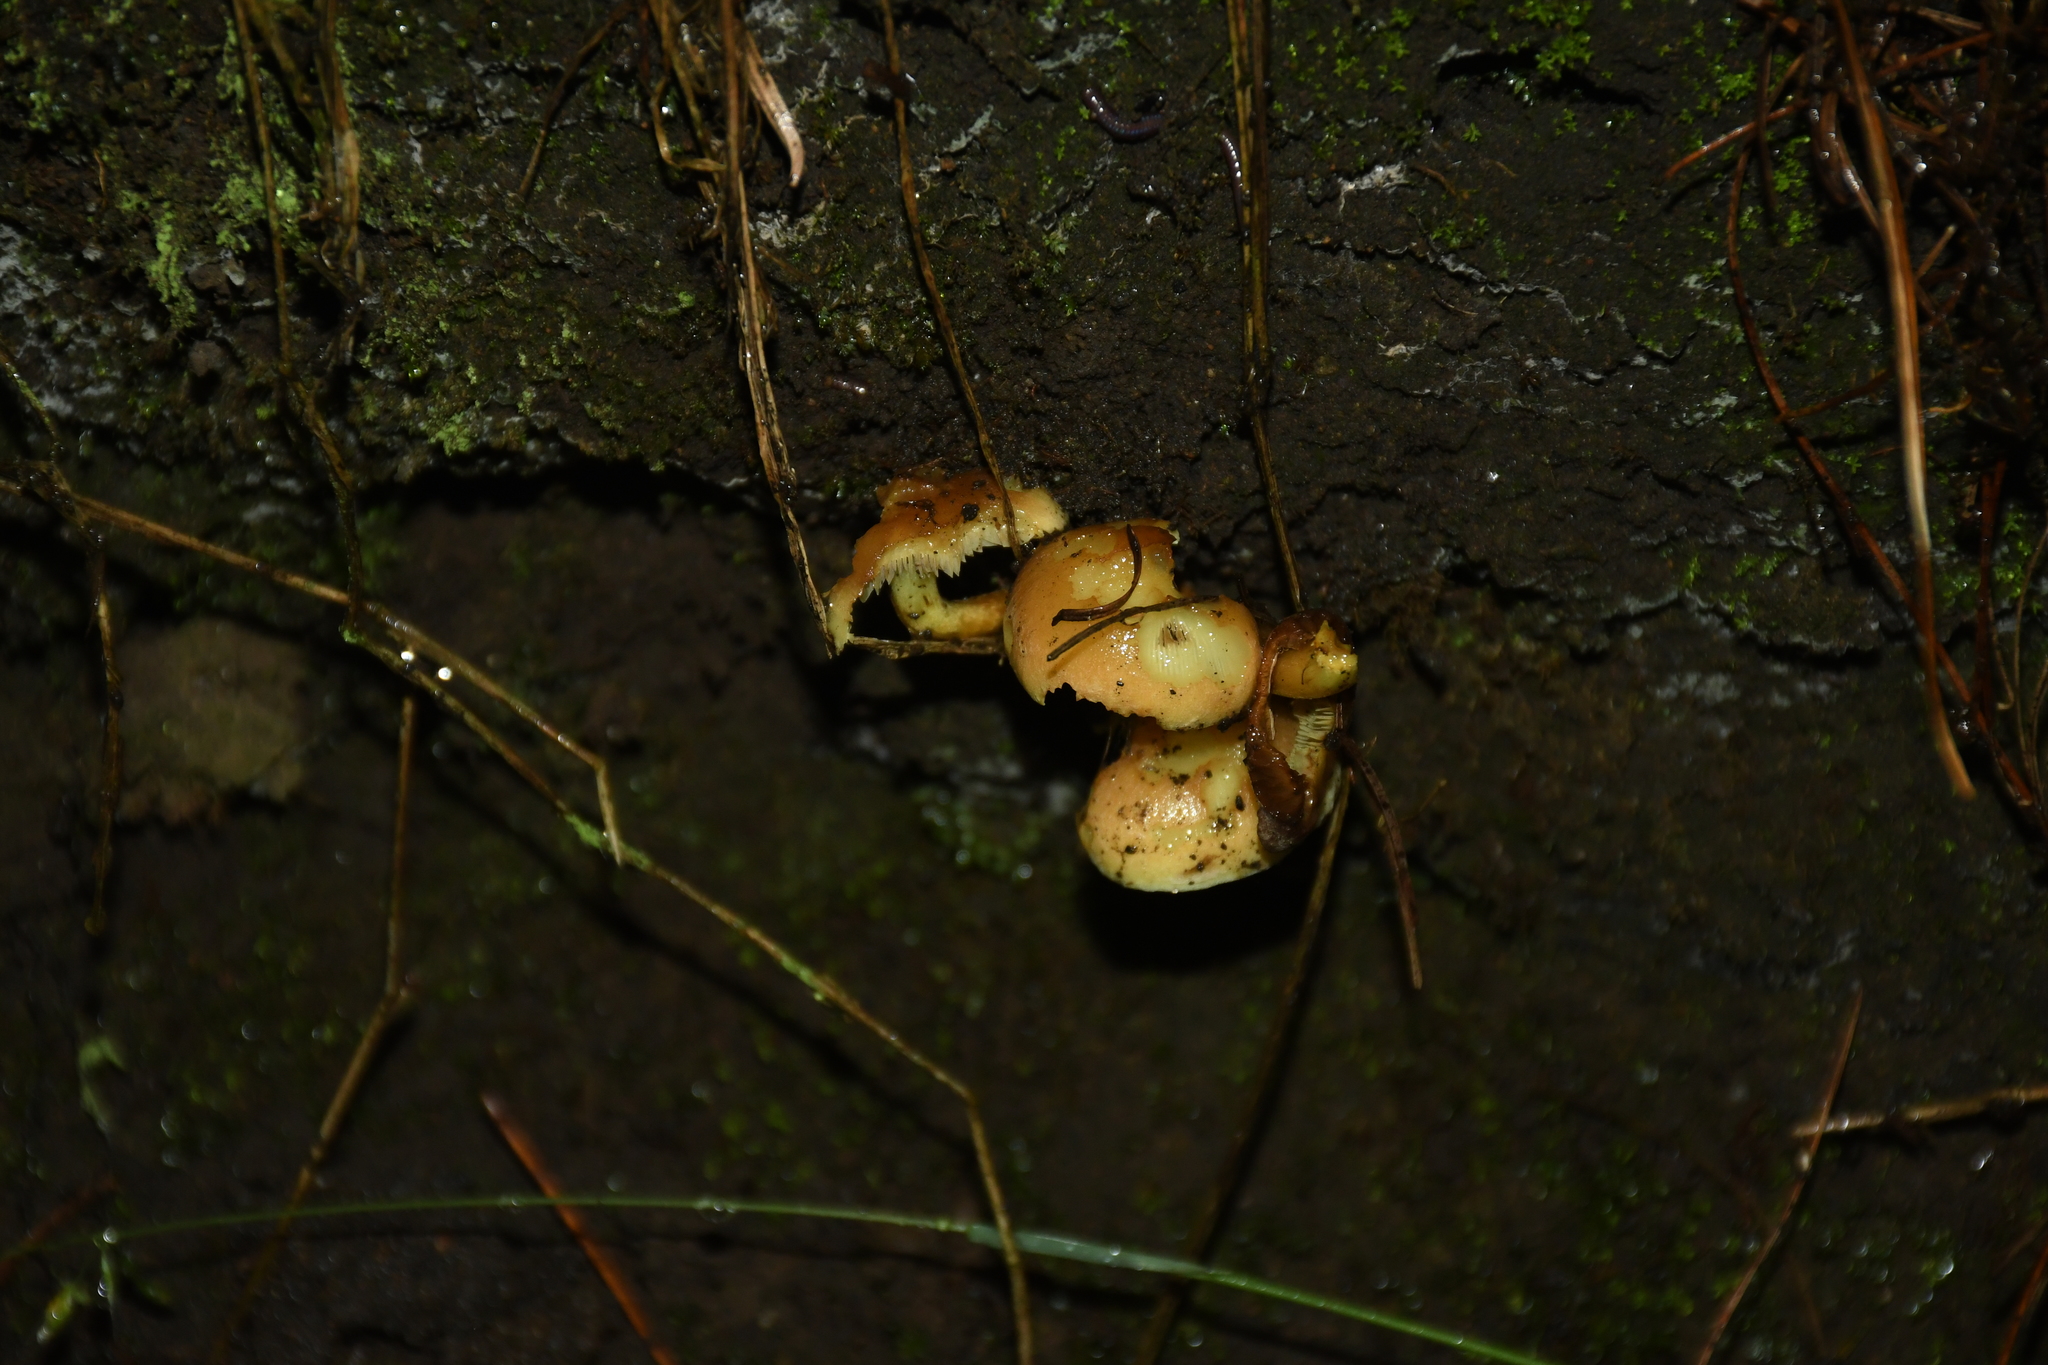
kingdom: Fungi
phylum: Basidiomycota
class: Agaricomycetes
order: Agaricales
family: Strophariaceae
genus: Hypholoma
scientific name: Hypholoma fasciculare
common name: Sulphur tuft
